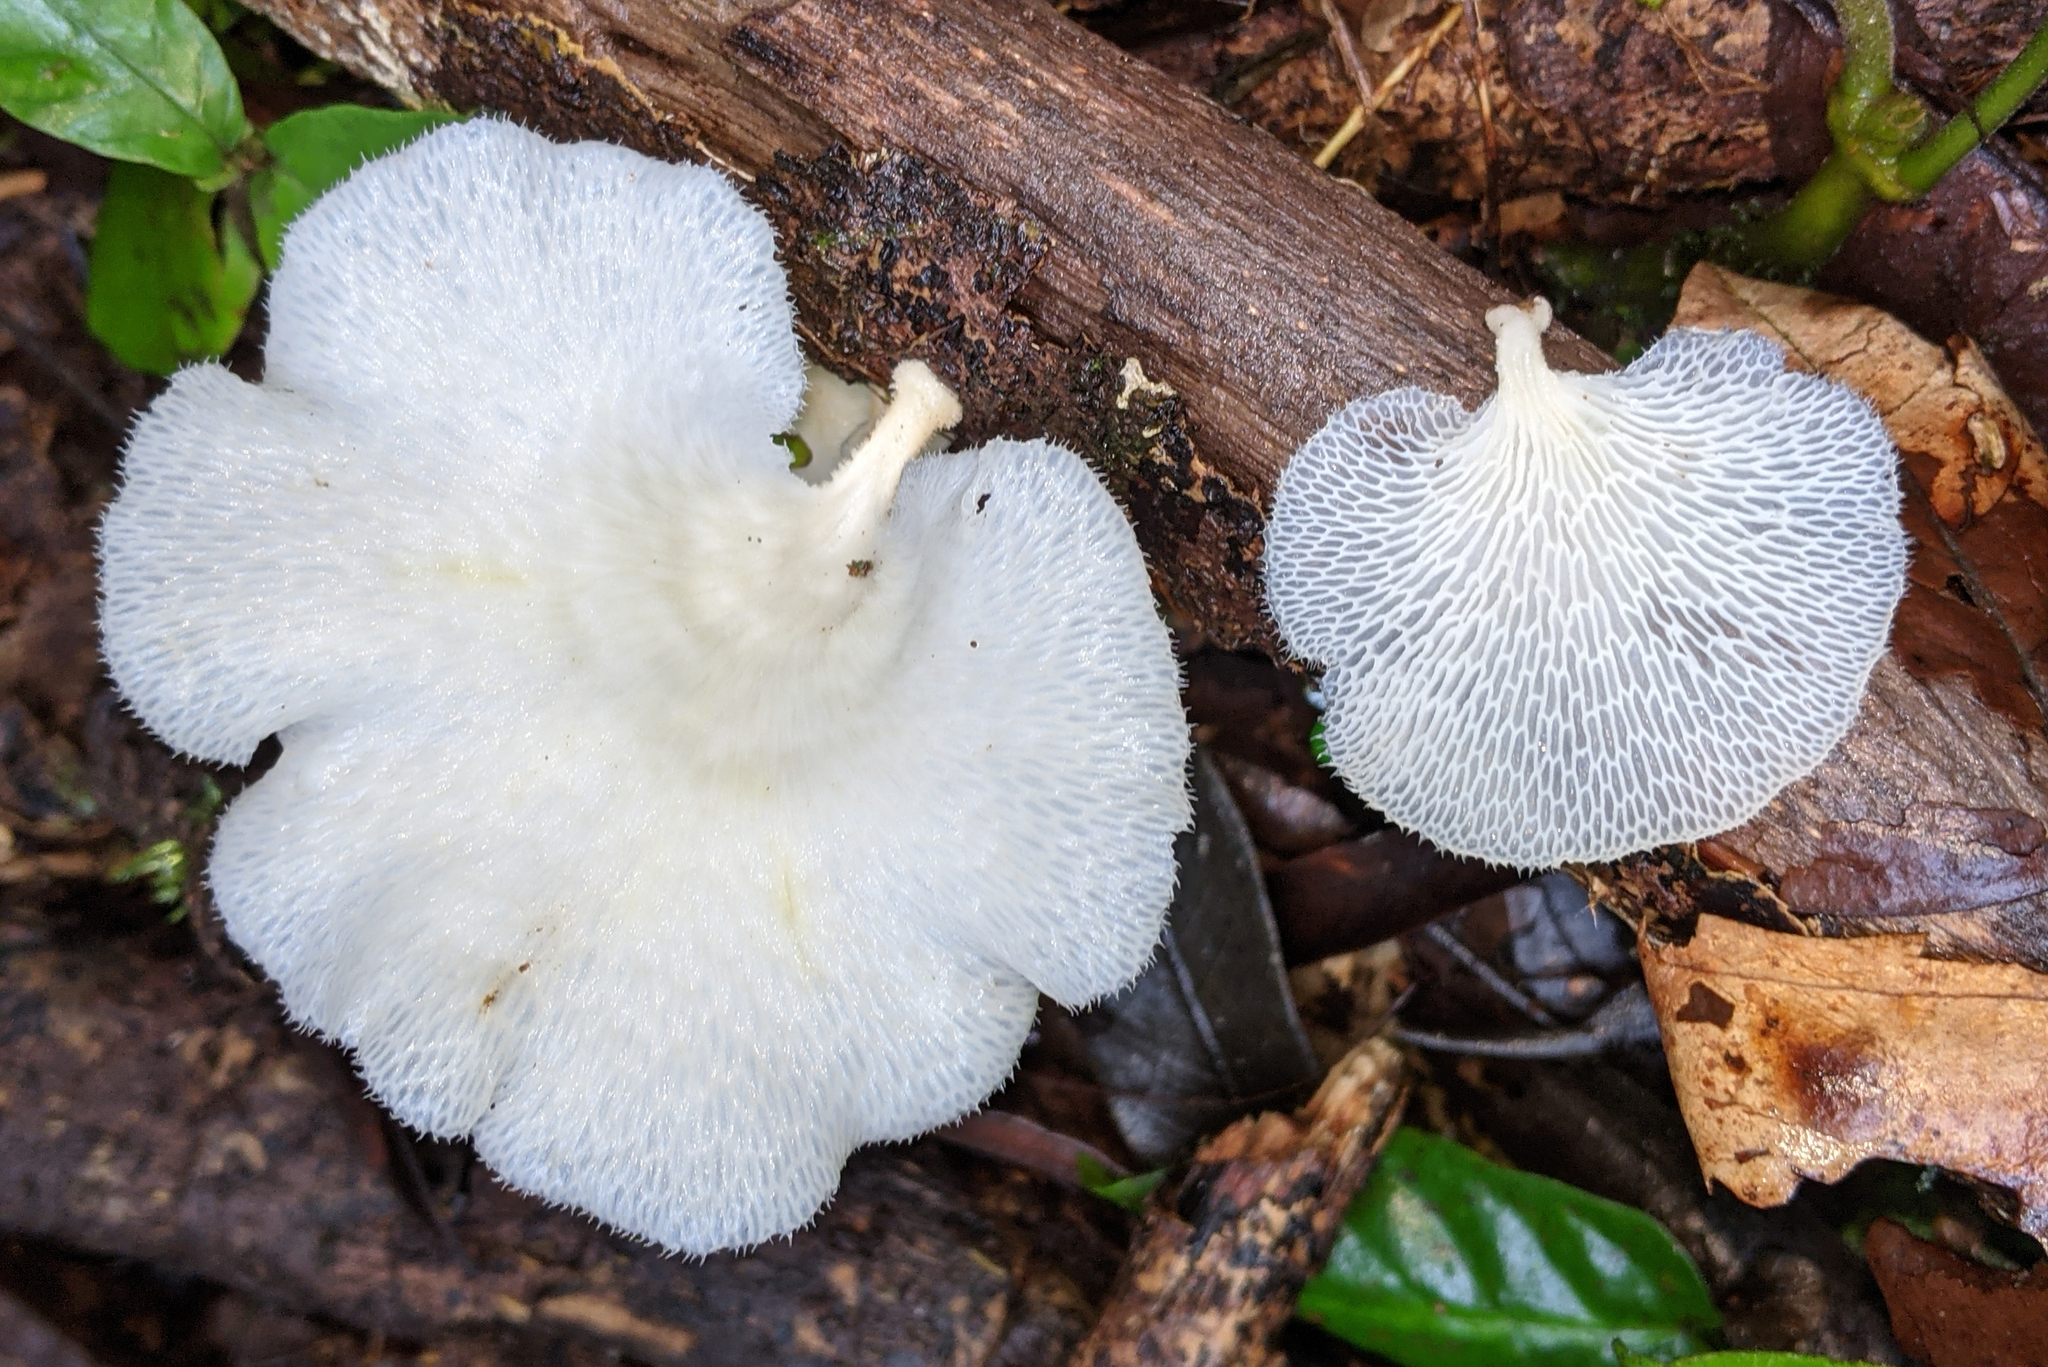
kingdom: Fungi
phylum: Basidiomycota
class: Agaricomycetes
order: Polyporales
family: Polyporaceae
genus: Favolus
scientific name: Favolus tenuiculus
